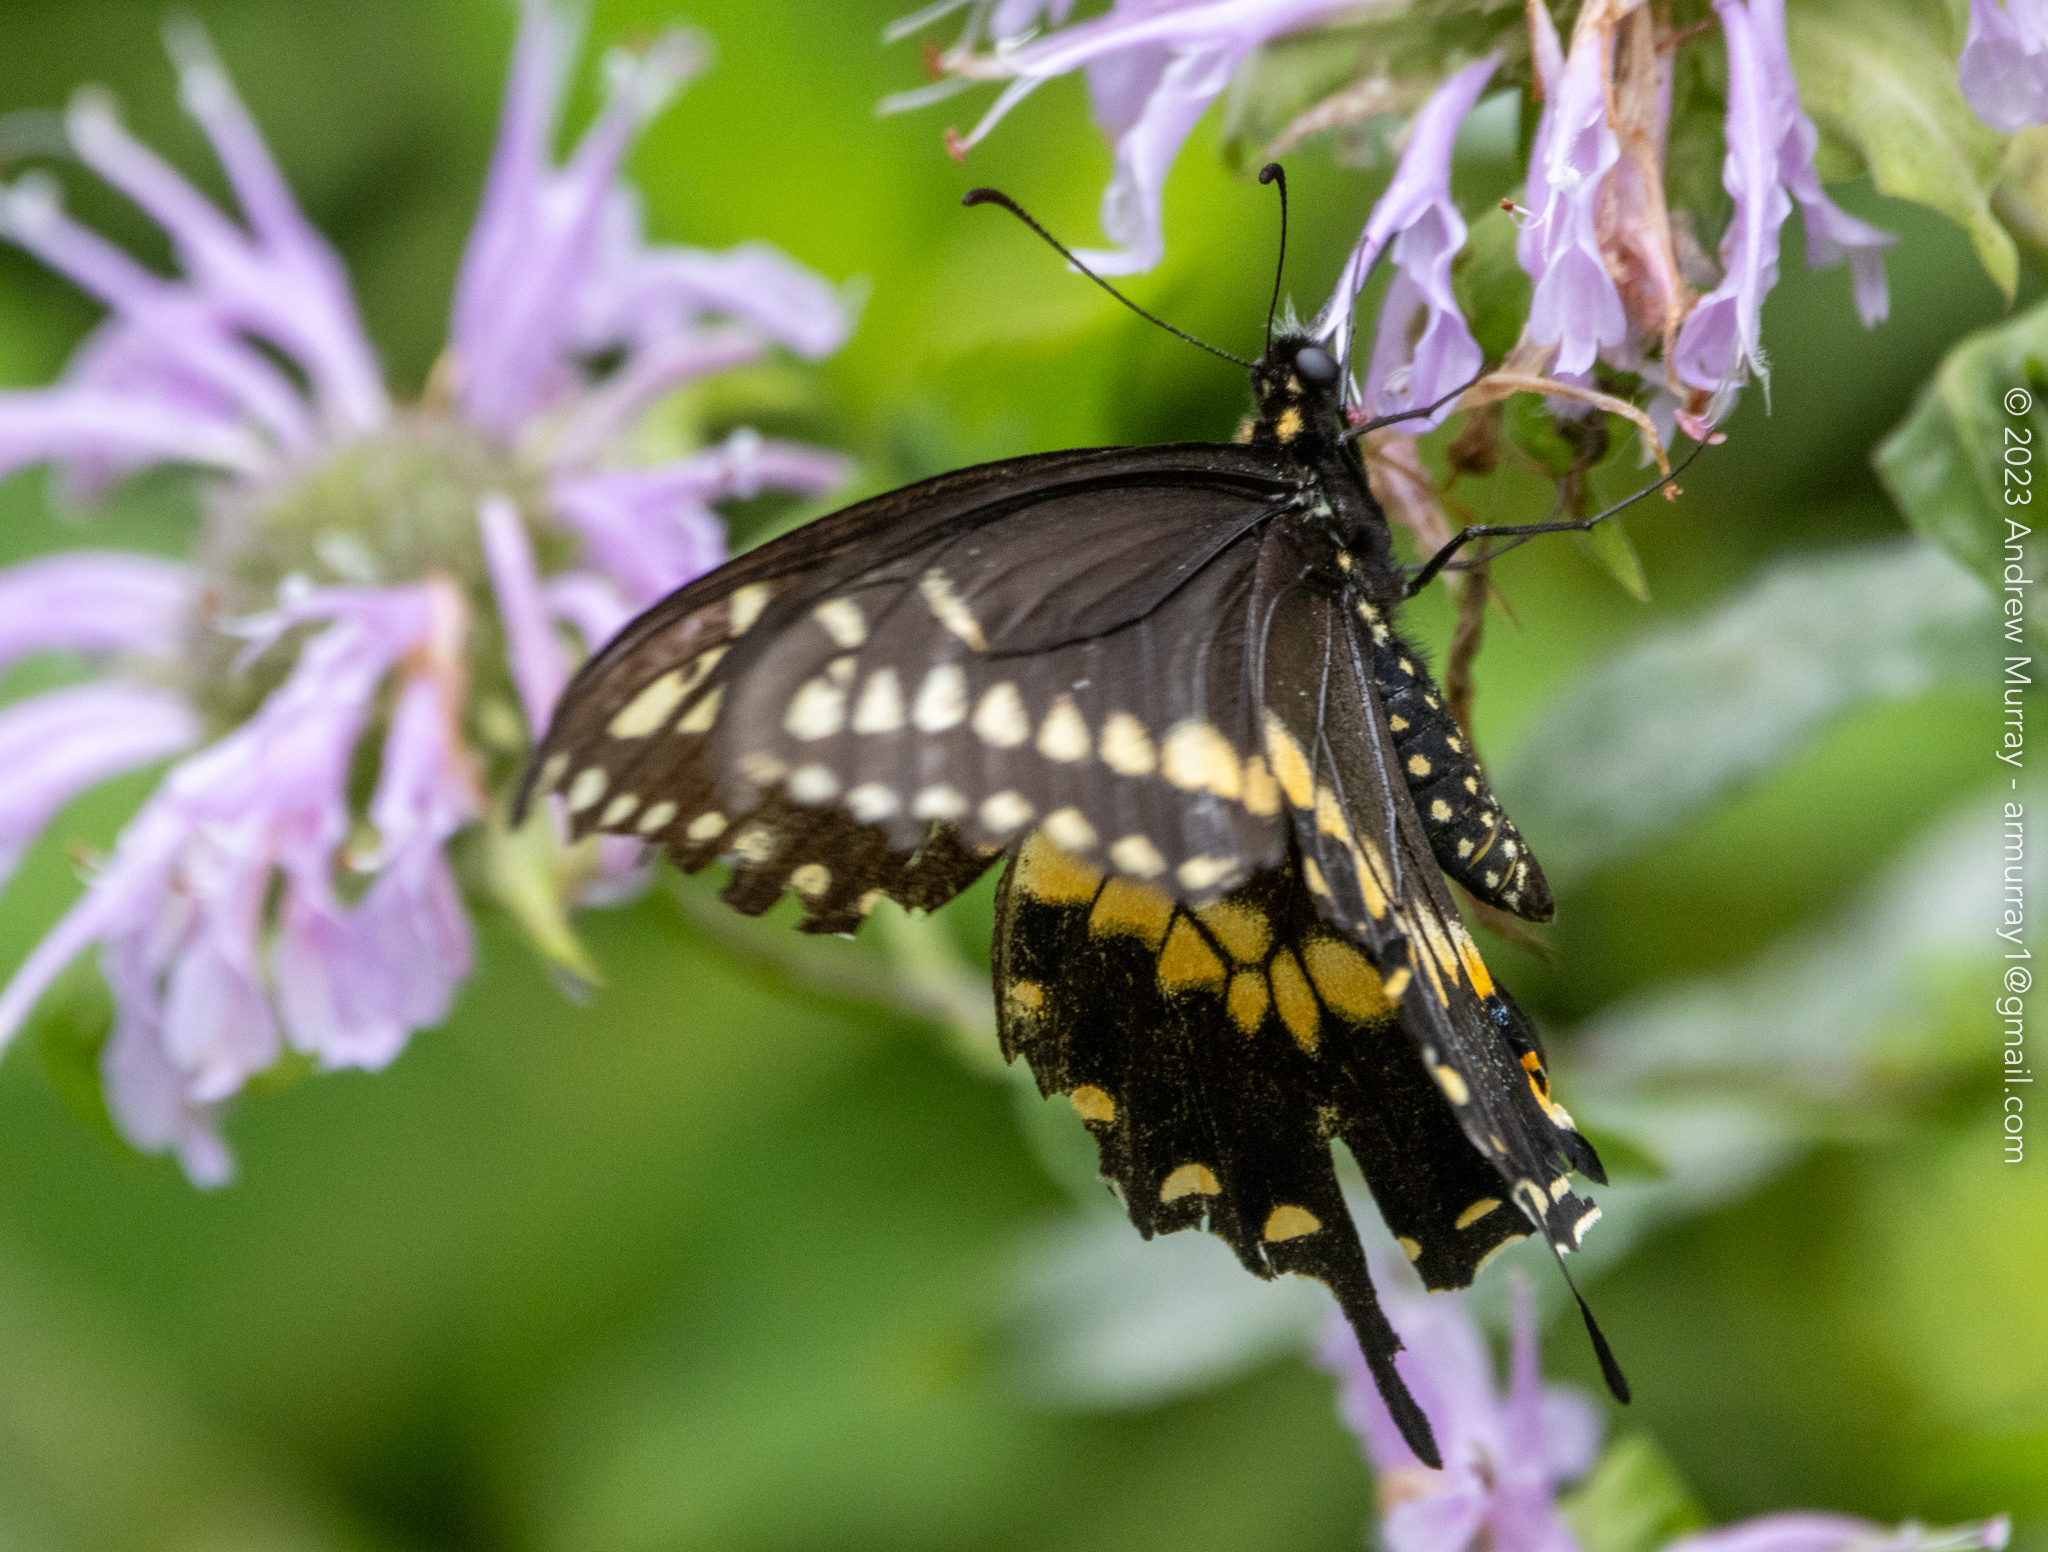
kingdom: Animalia
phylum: Arthropoda
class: Insecta
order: Lepidoptera
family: Papilionidae
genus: Papilio
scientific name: Papilio polyxenes
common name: Black swallowtail
